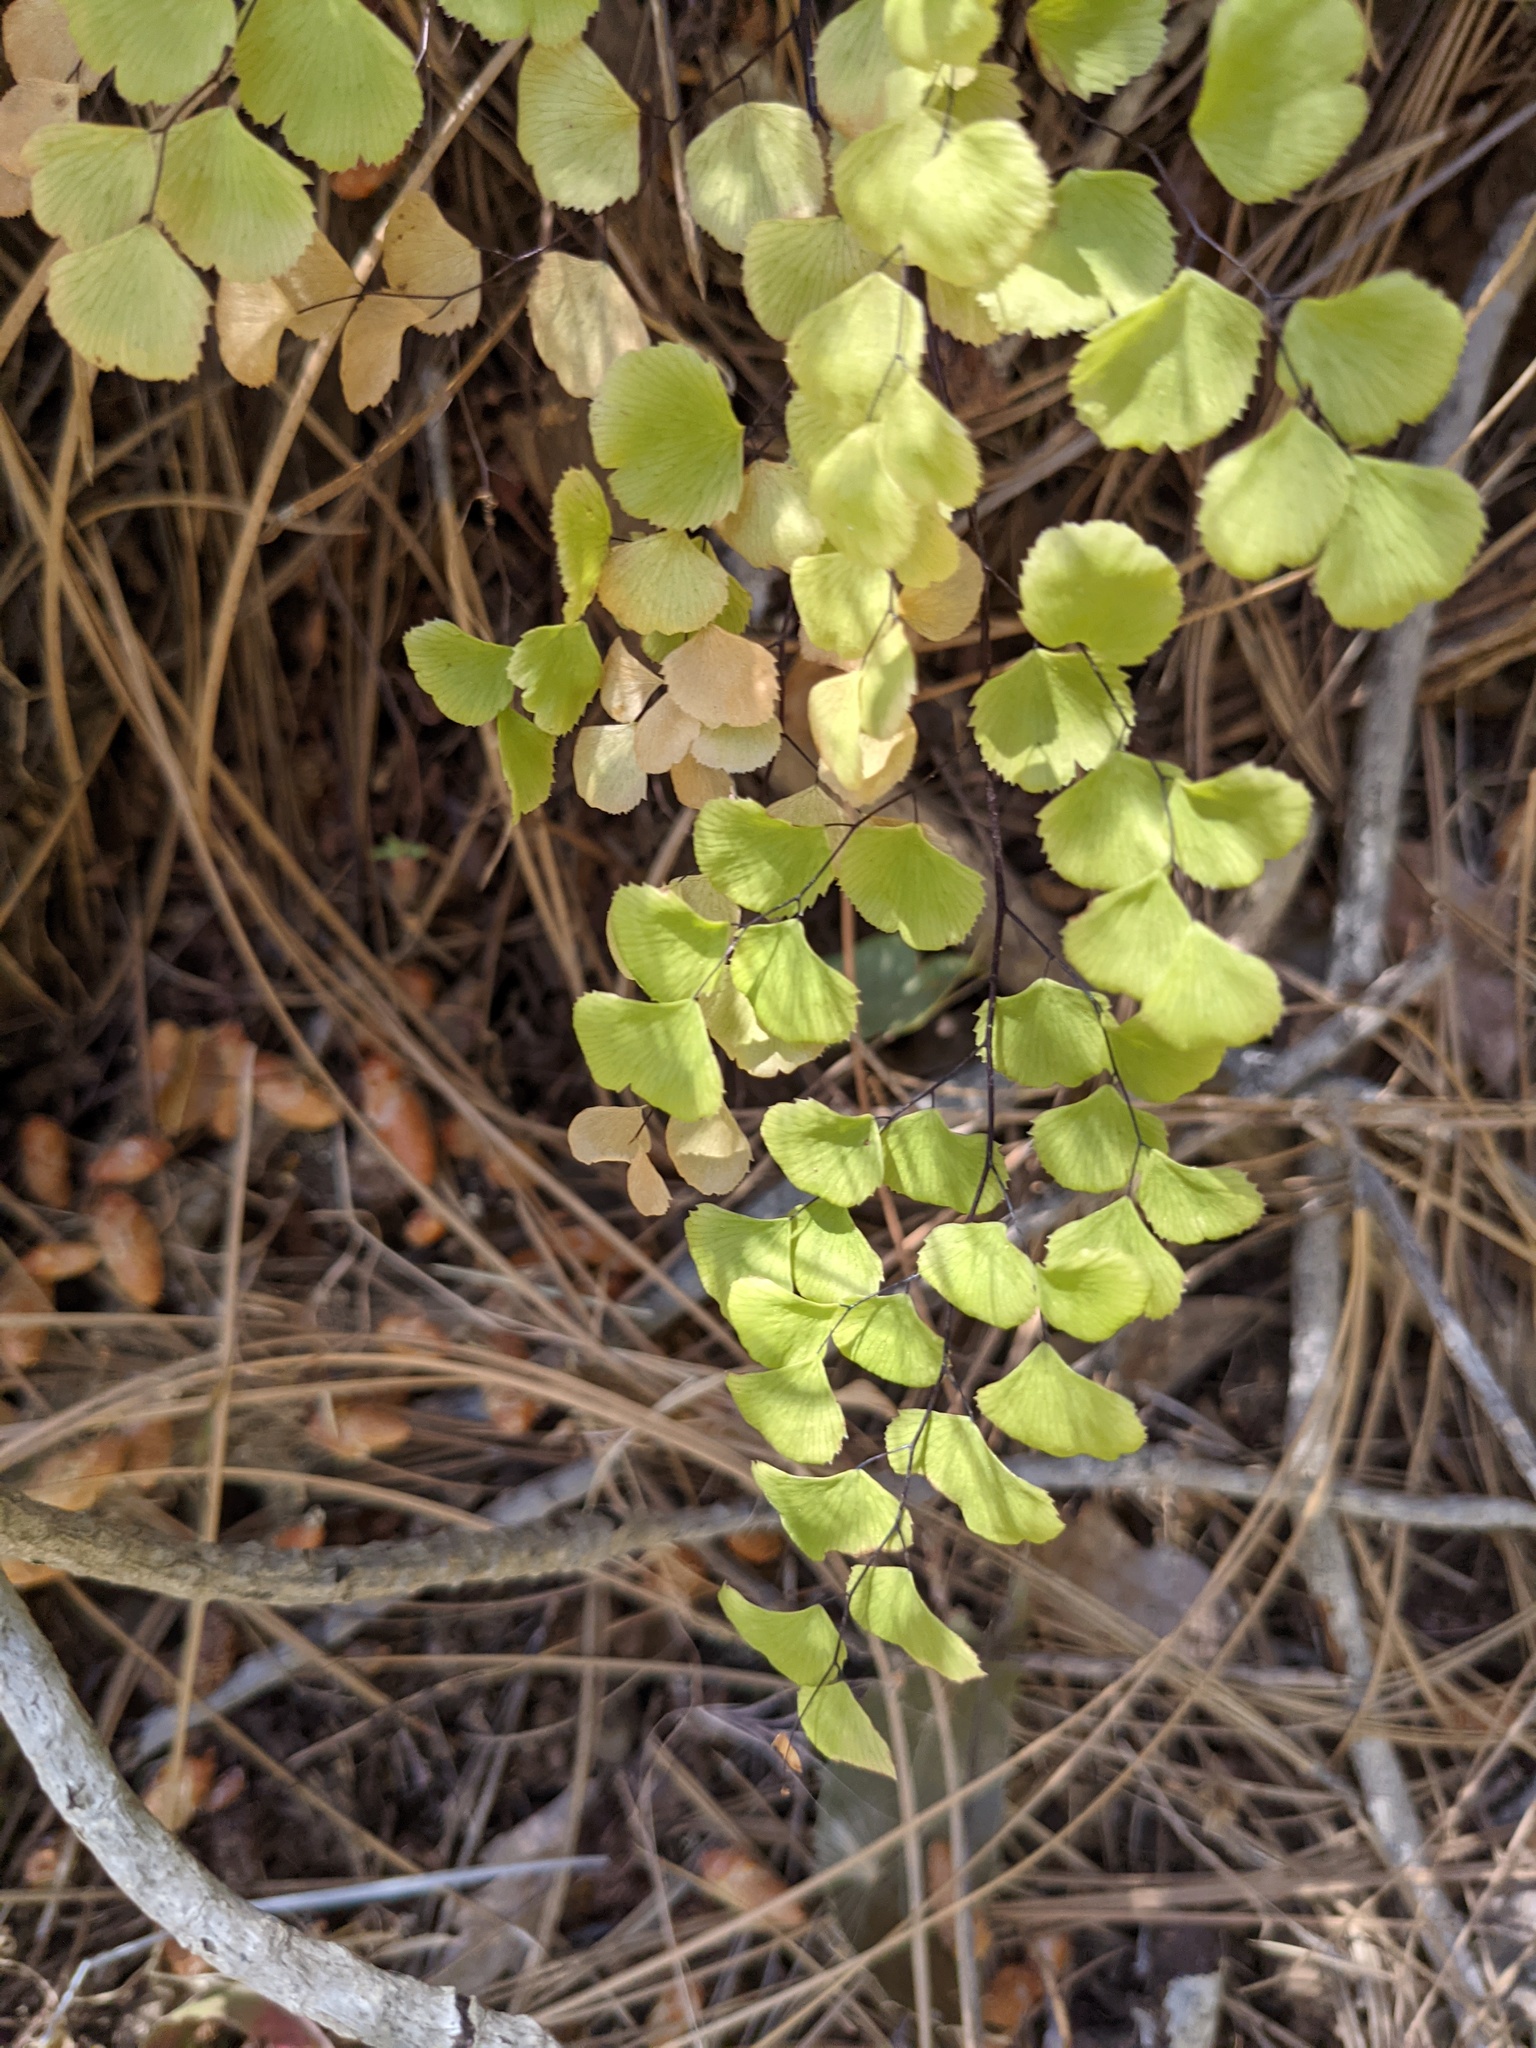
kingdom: Plantae
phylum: Tracheophyta
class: Polypodiopsida
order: Polypodiales
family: Pteridaceae
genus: Adiantum
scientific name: Adiantum jordanii
